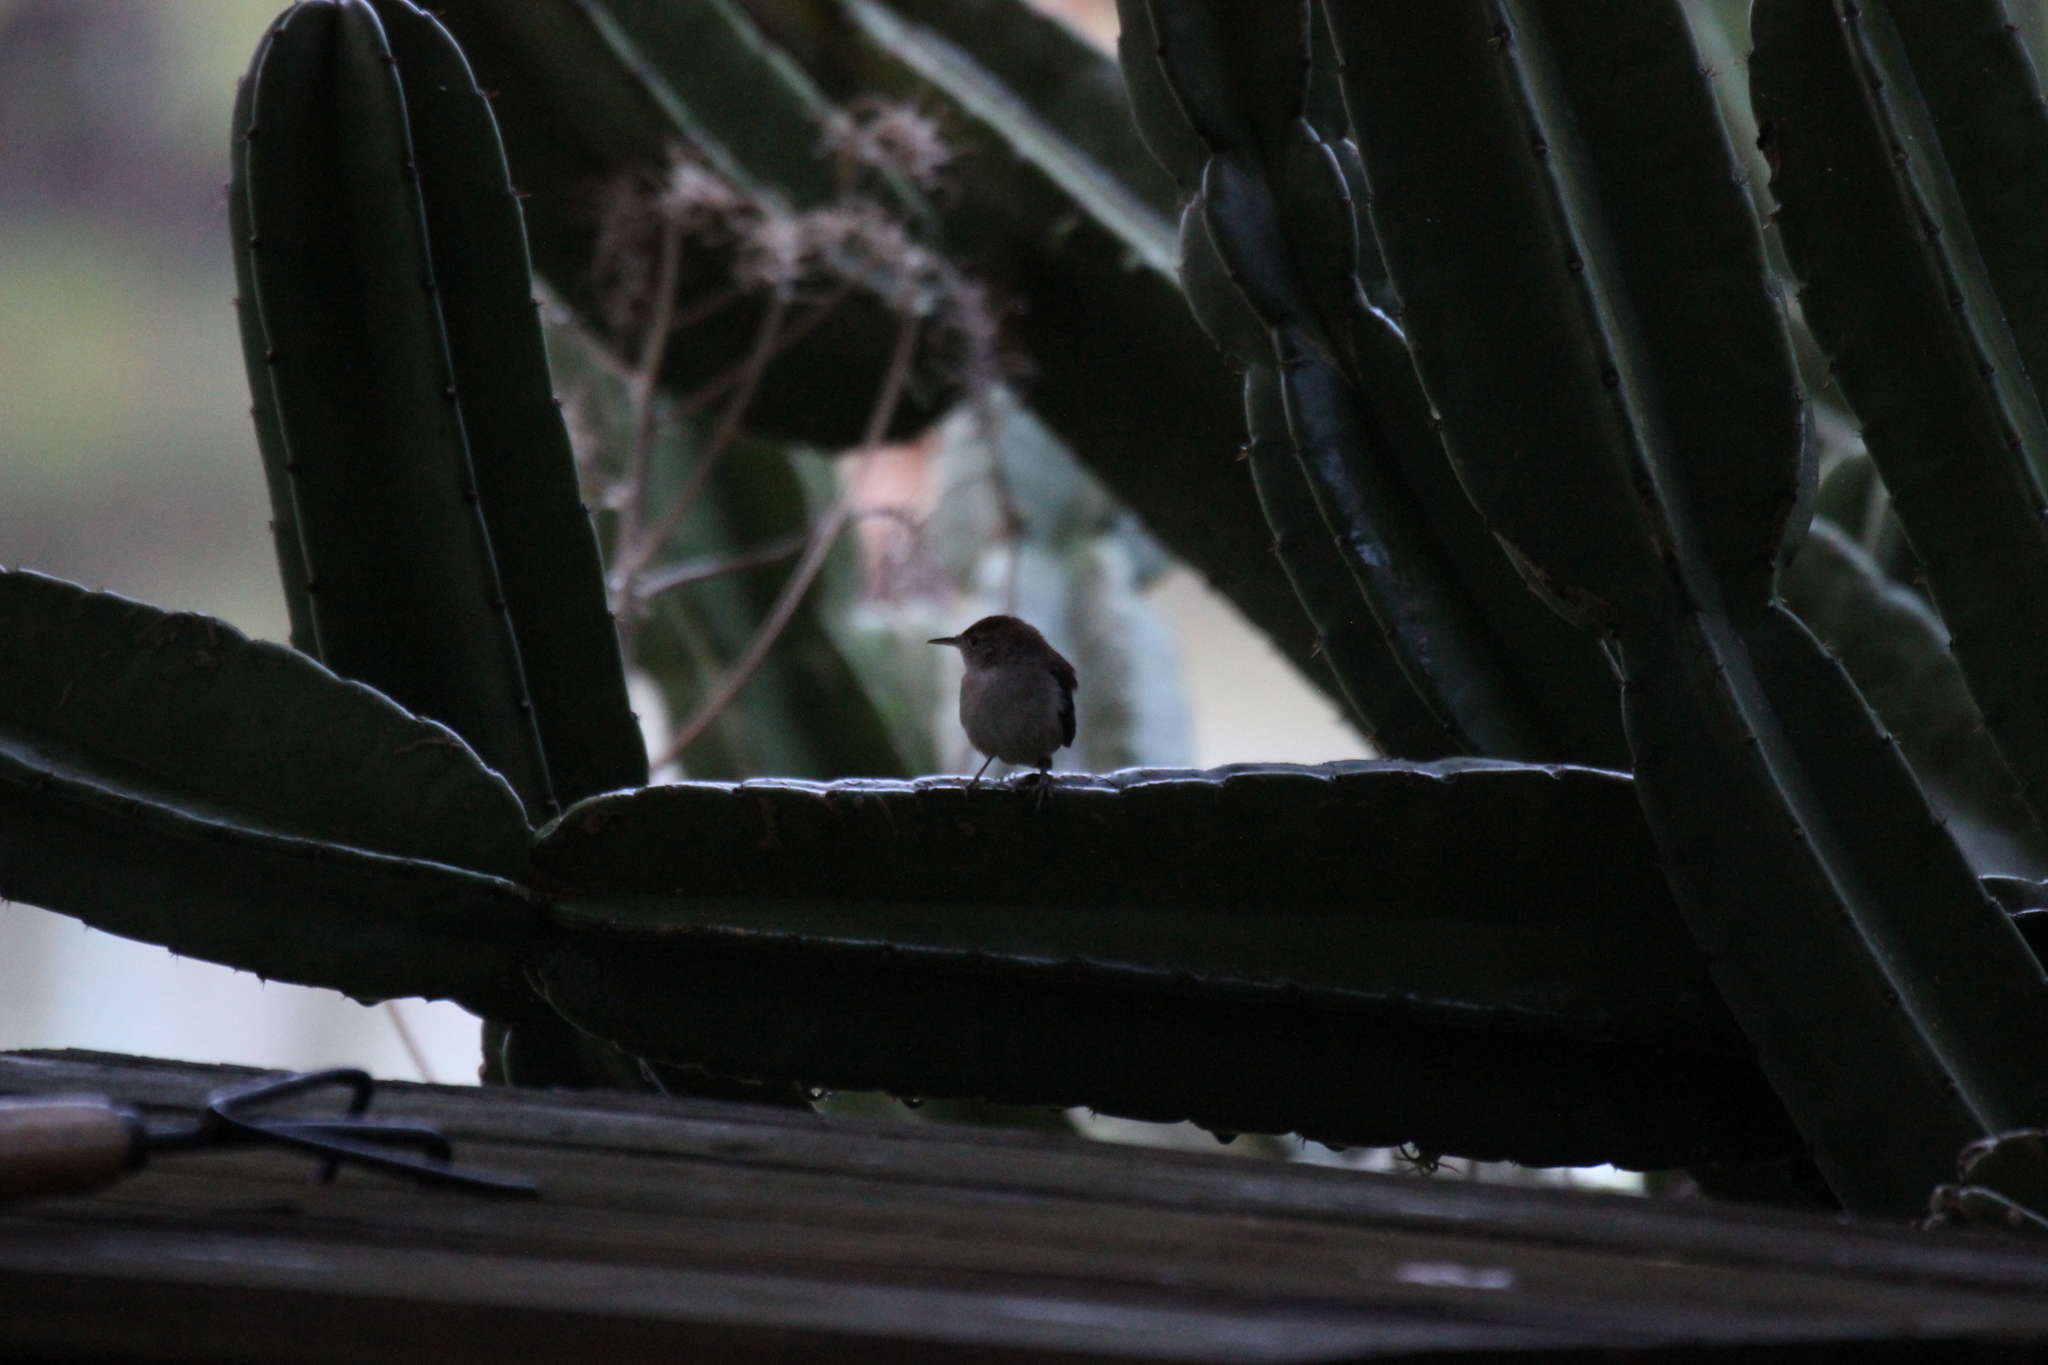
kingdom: Animalia
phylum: Chordata
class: Aves
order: Passeriformes
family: Troglodytidae
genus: Troglodytes
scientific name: Troglodytes aedon
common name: House wren
